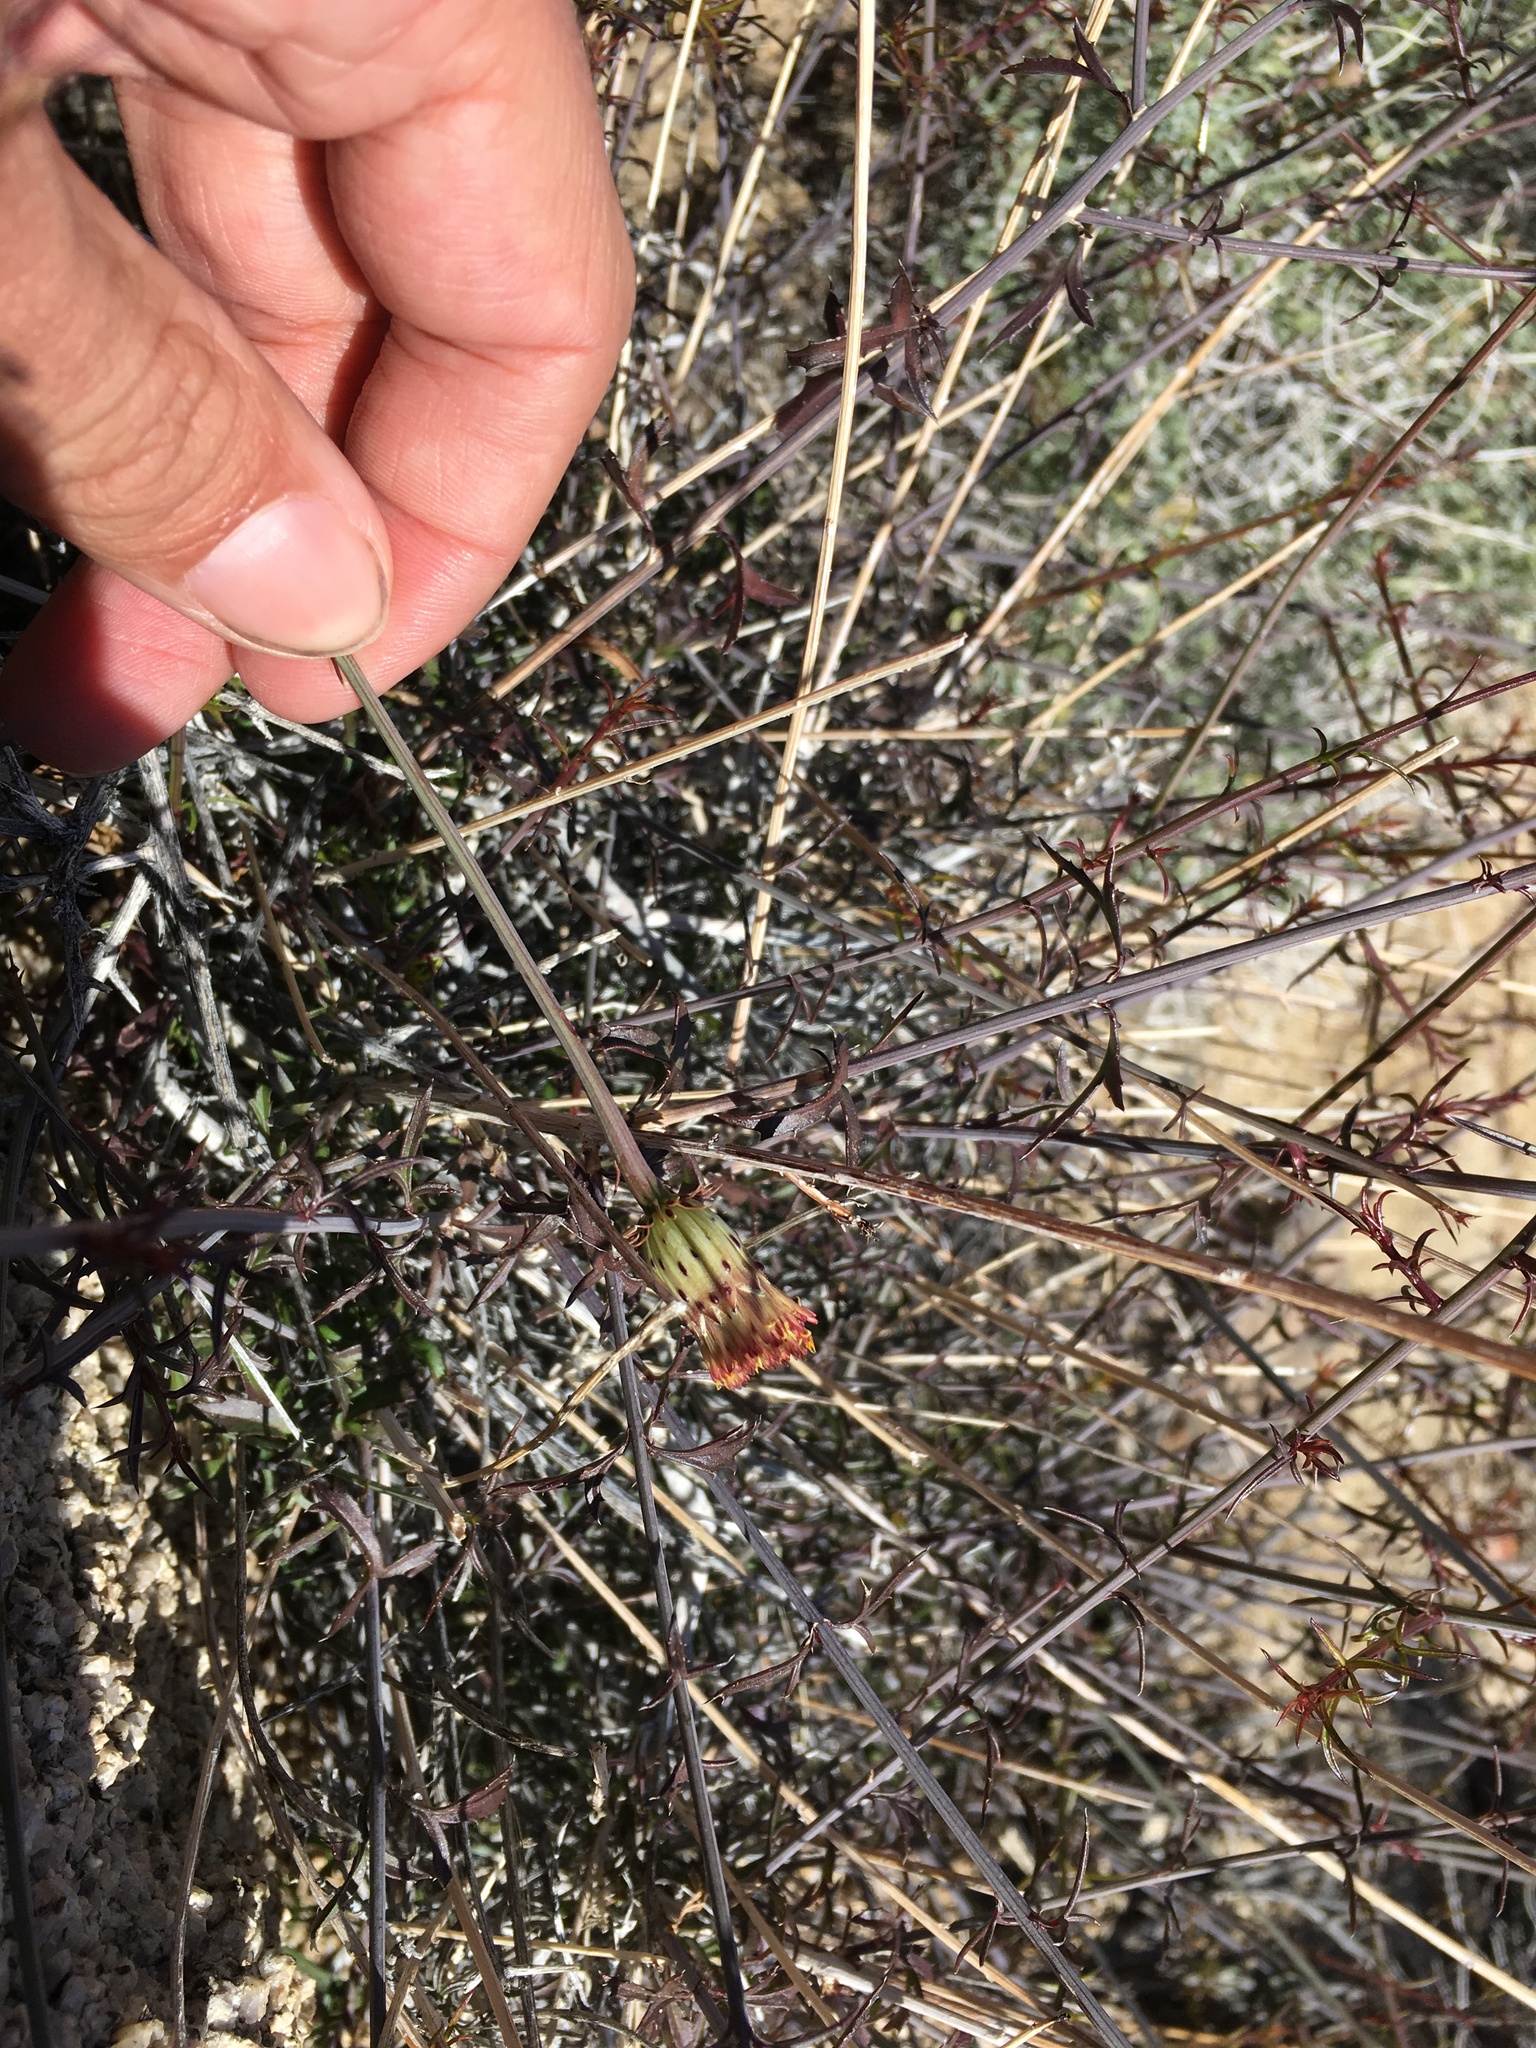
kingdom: Plantae
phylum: Tracheophyta
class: Magnoliopsida
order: Asterales
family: Asteraceae
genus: Adenophyllum
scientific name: Adenophyllum porophylloides
